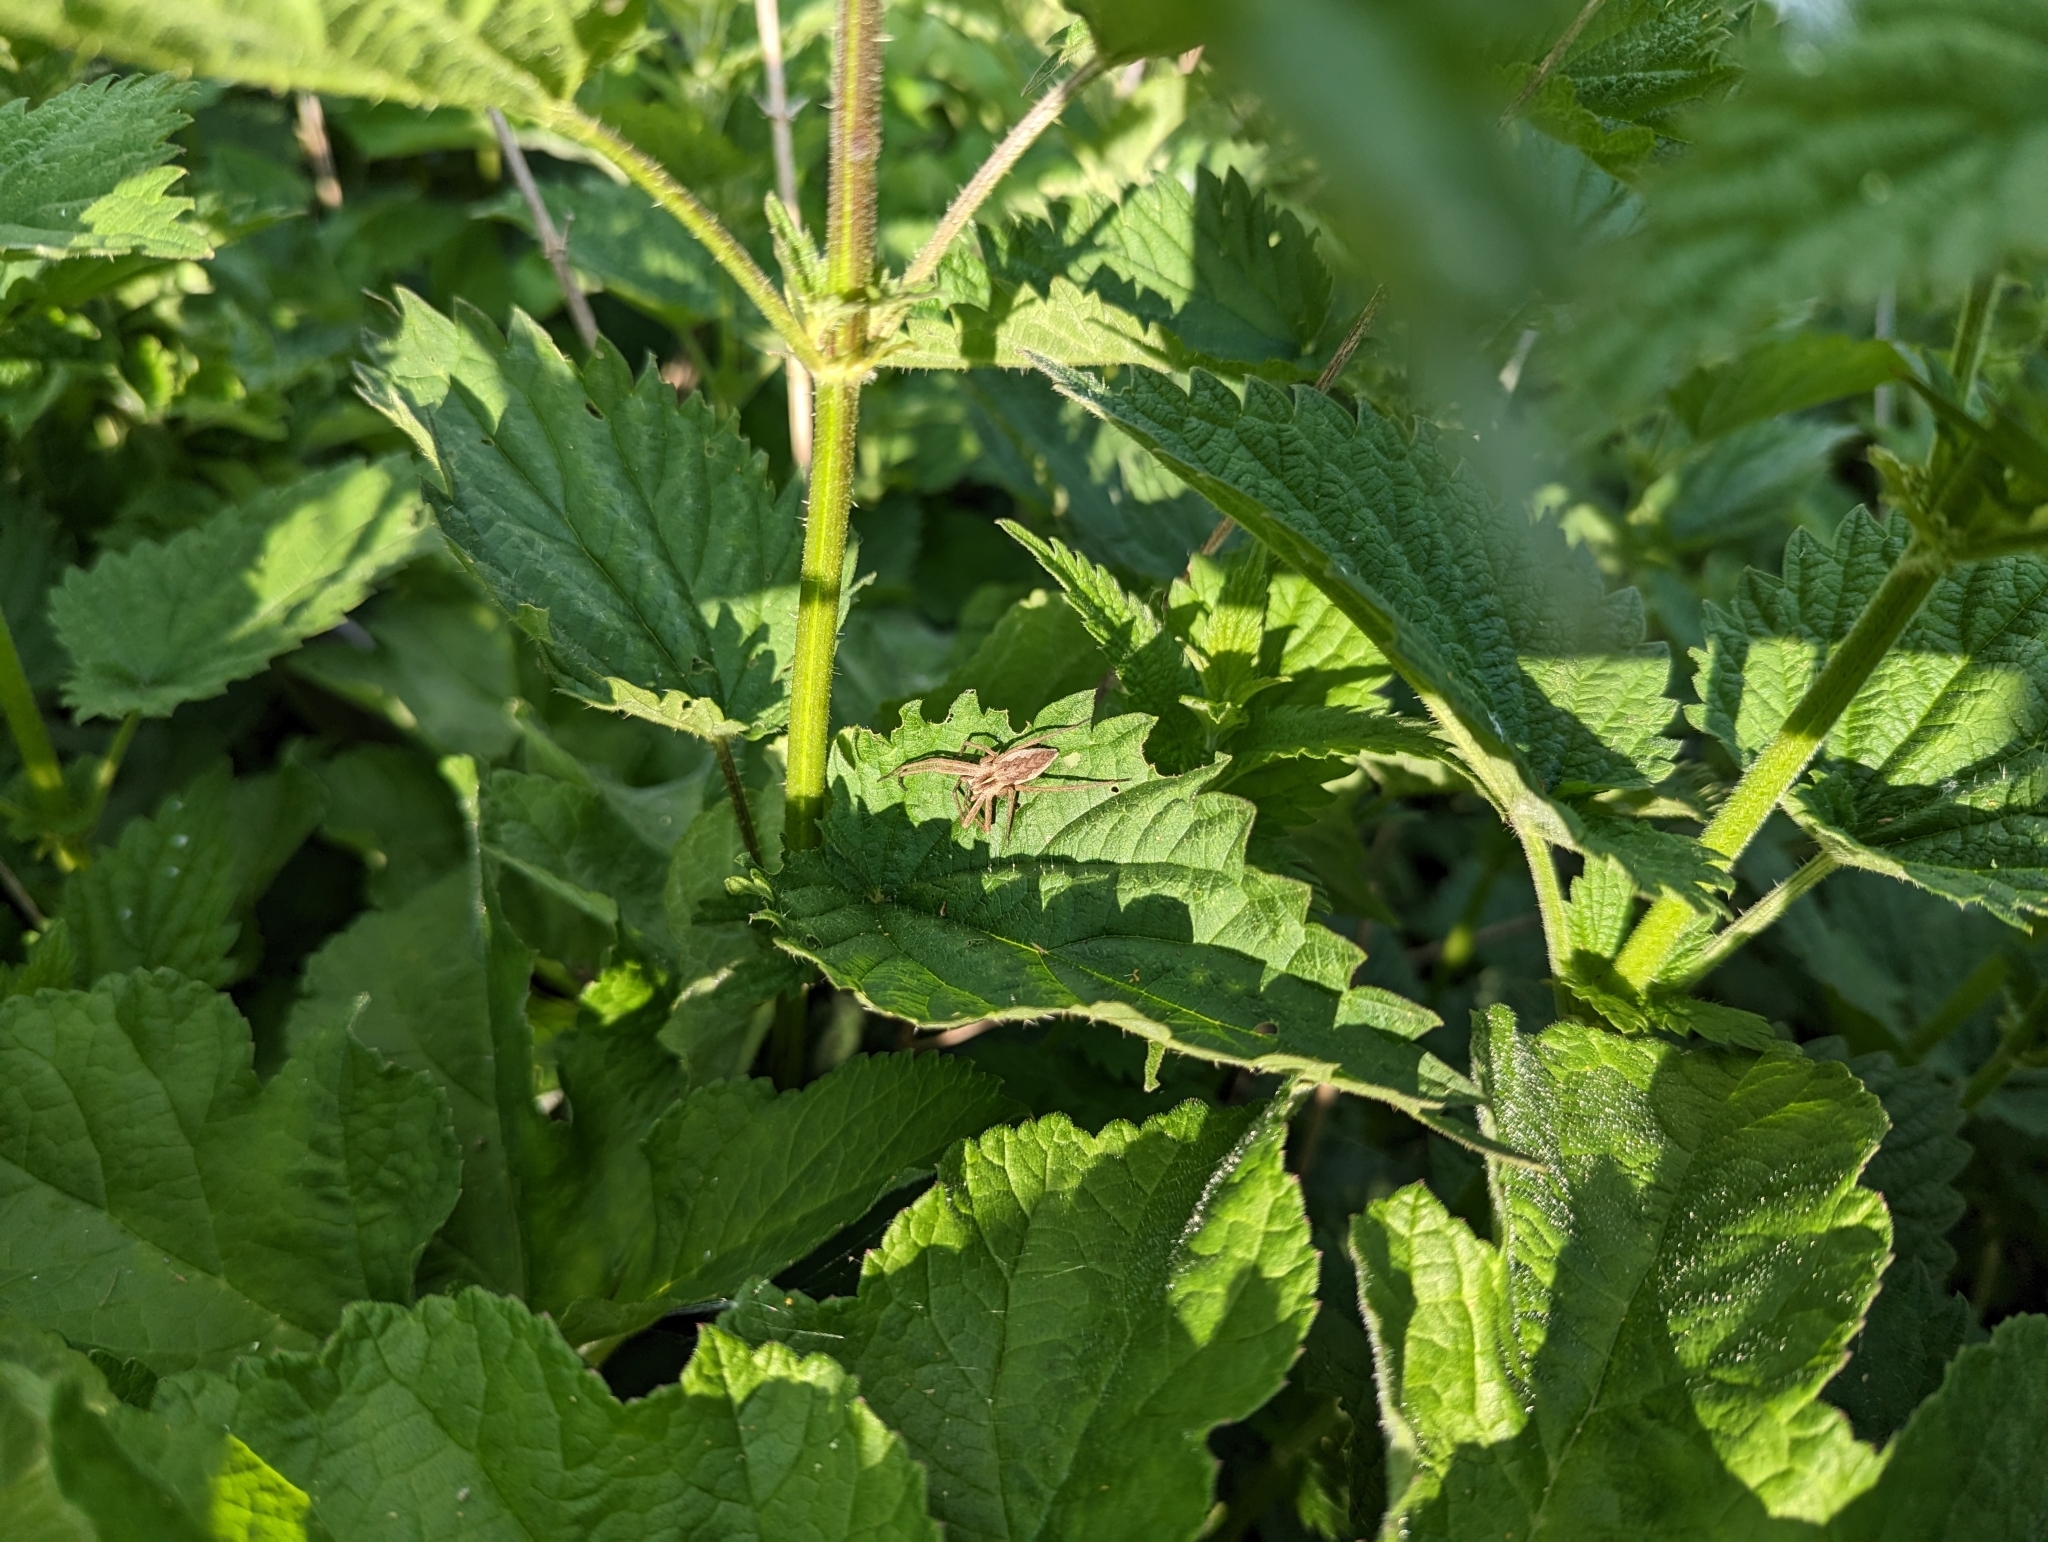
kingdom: Animalia
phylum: Arthropoda
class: Arachnida
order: Araneae
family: Pisauridae
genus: Pisaura
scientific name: Pisaura mirabilis
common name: Tent spider
